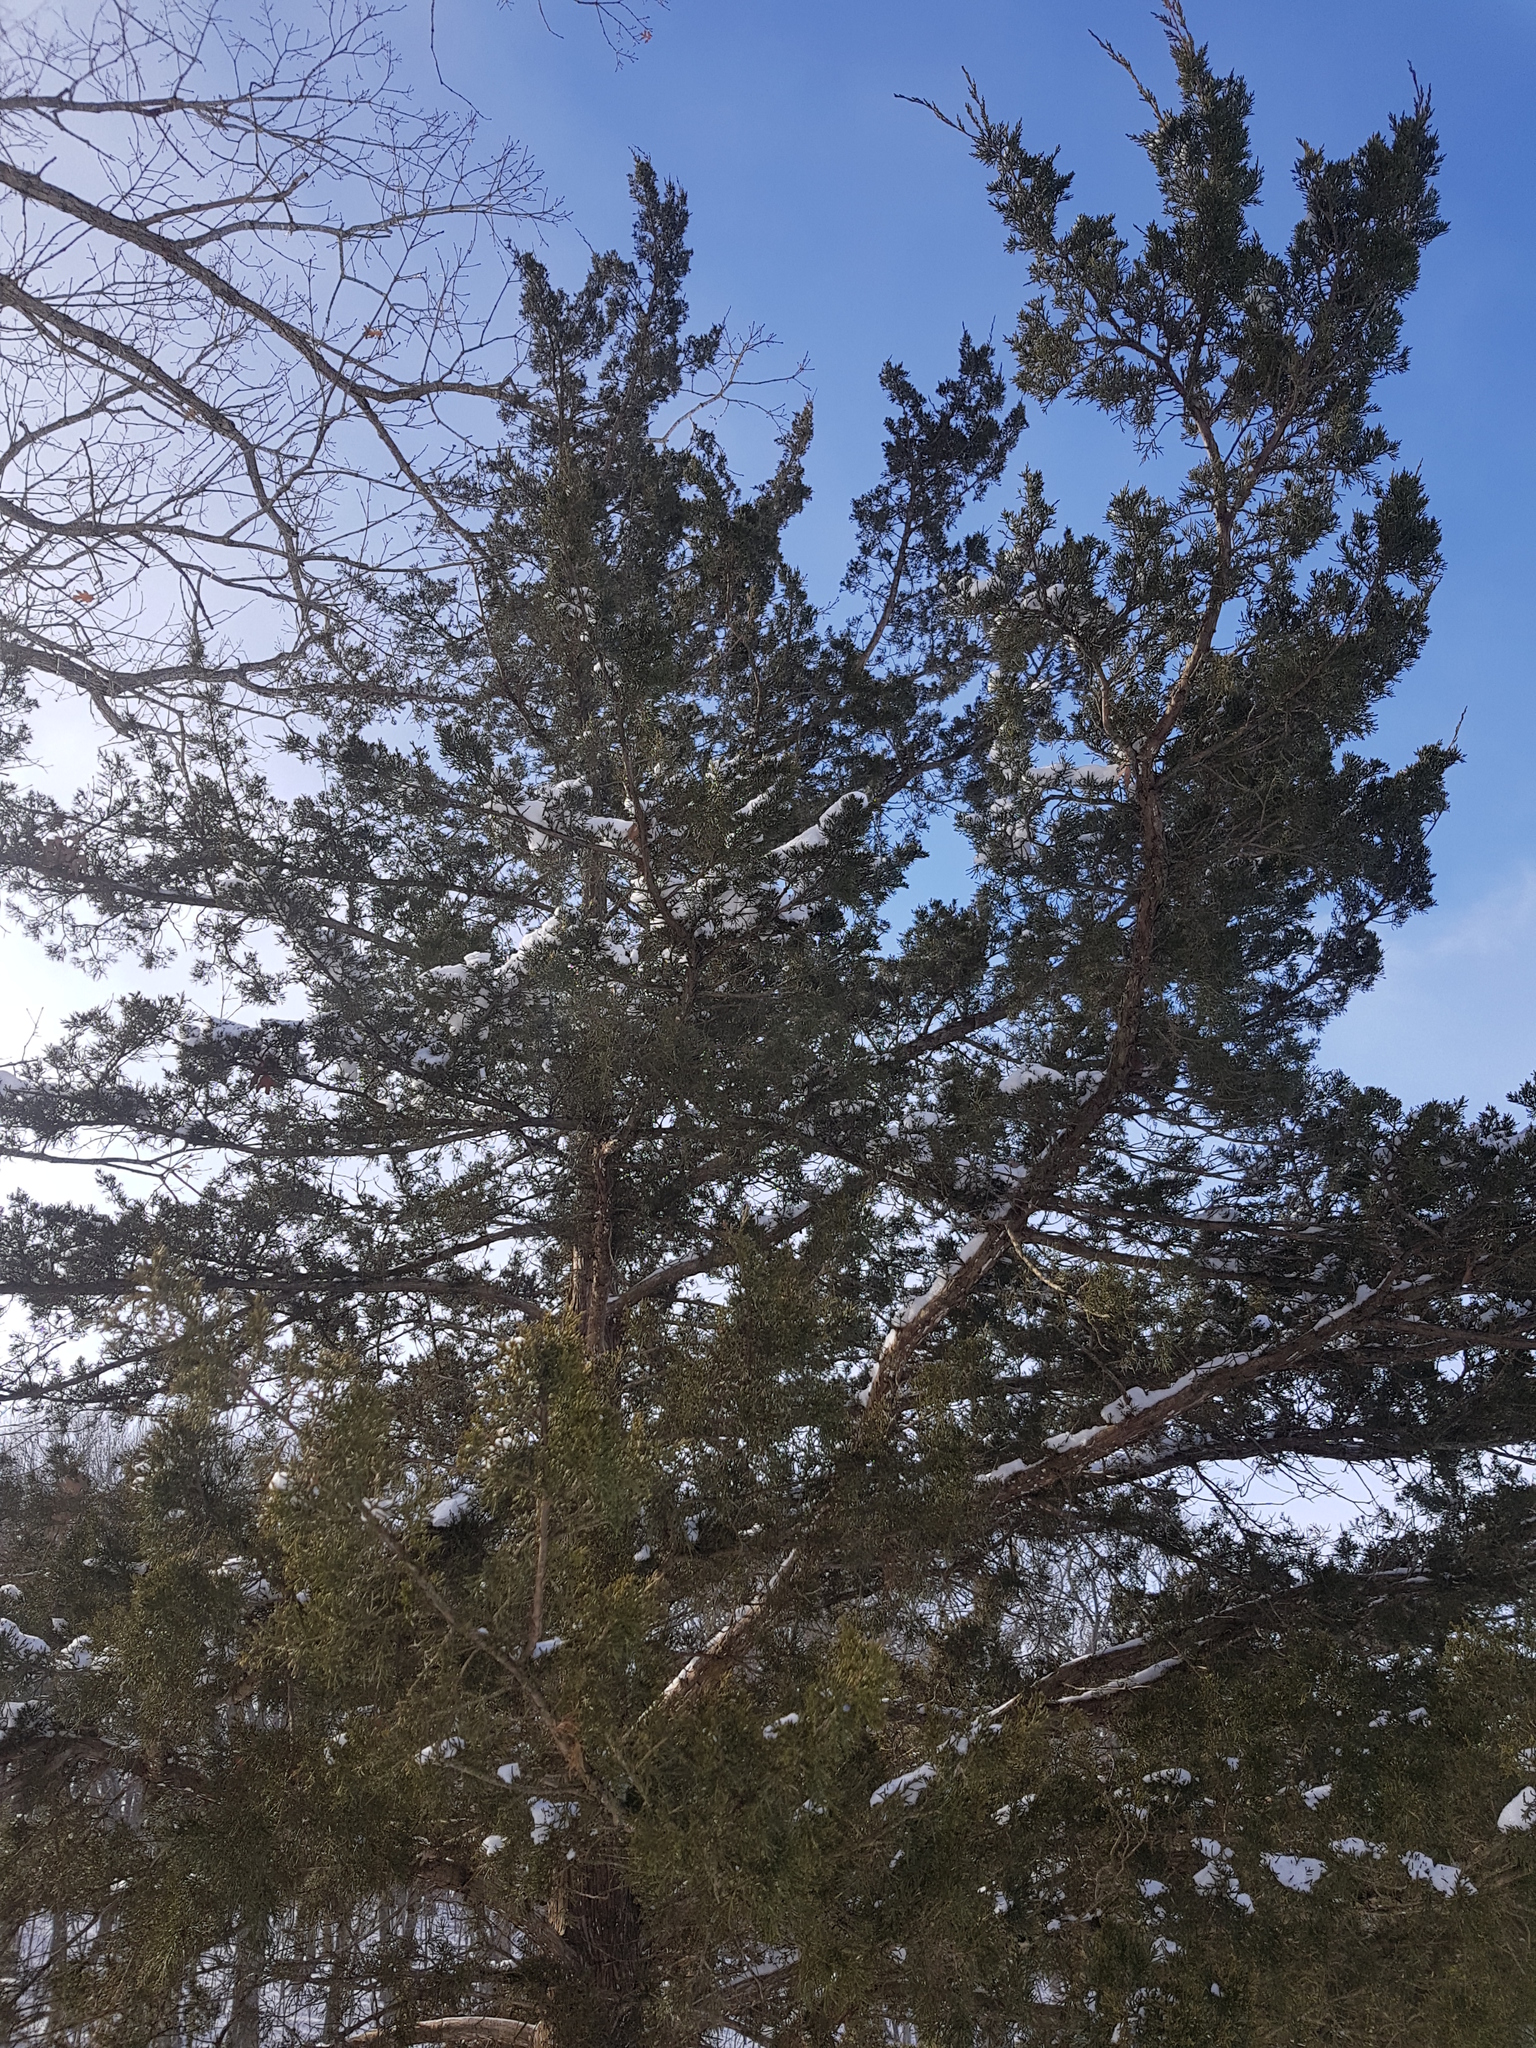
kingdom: Plantae
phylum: Tracheophyta
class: Pinopsida
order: Pinales
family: Cupressaceae
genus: Juniperus
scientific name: Juniperus virginiana
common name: Red juniper
